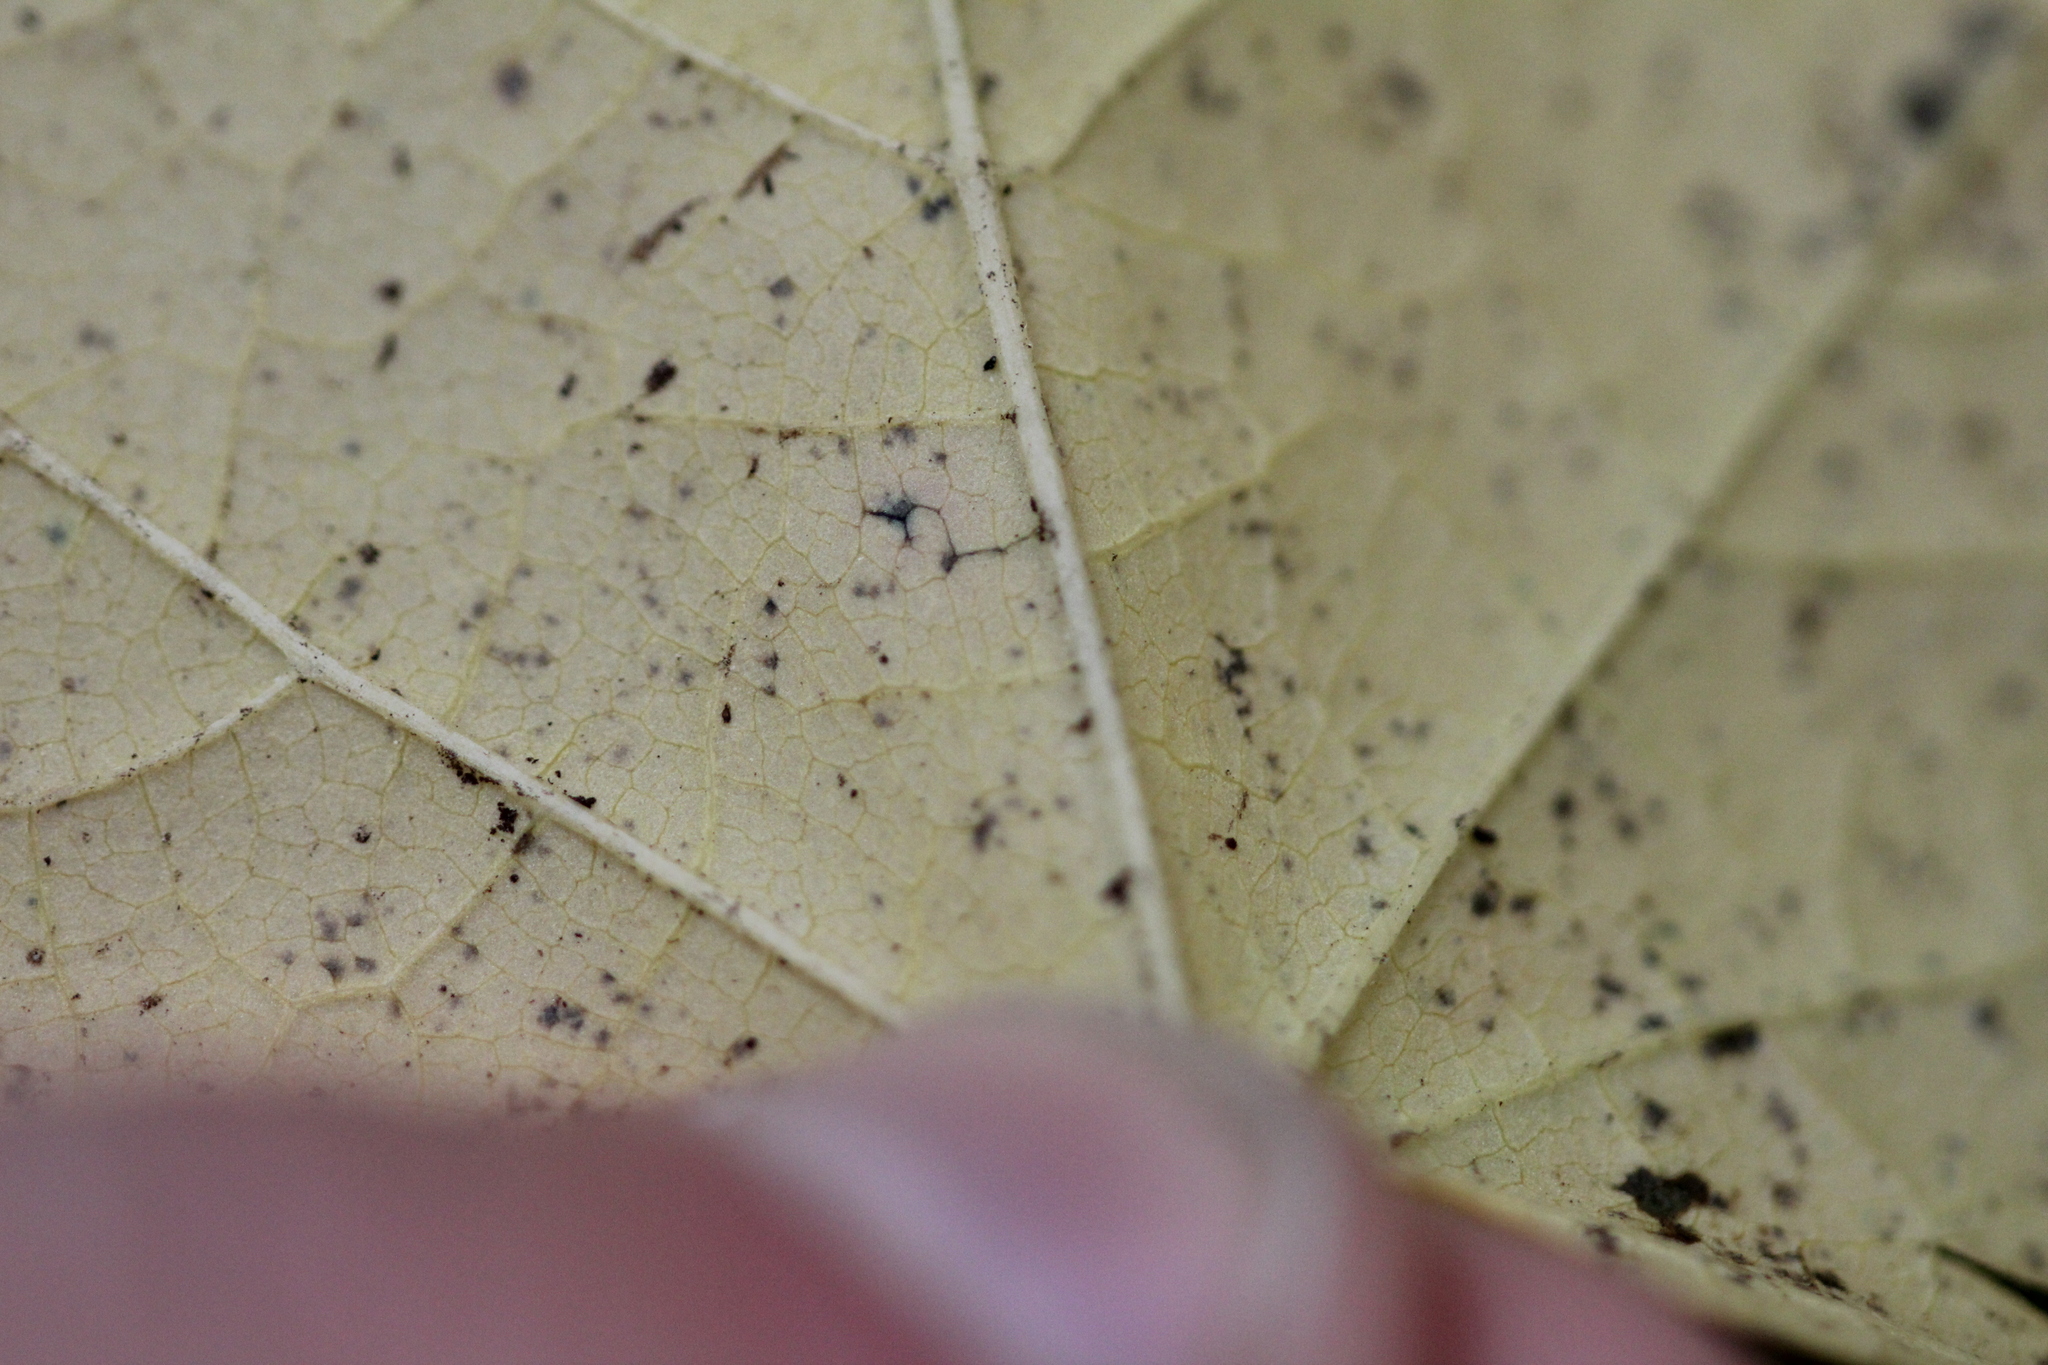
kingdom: Plantae
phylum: Tracheophyta
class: Magnoliopsida
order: Sapindales
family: Sapindaceae
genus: Acer
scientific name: Acer spicatum
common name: Mountain maple
